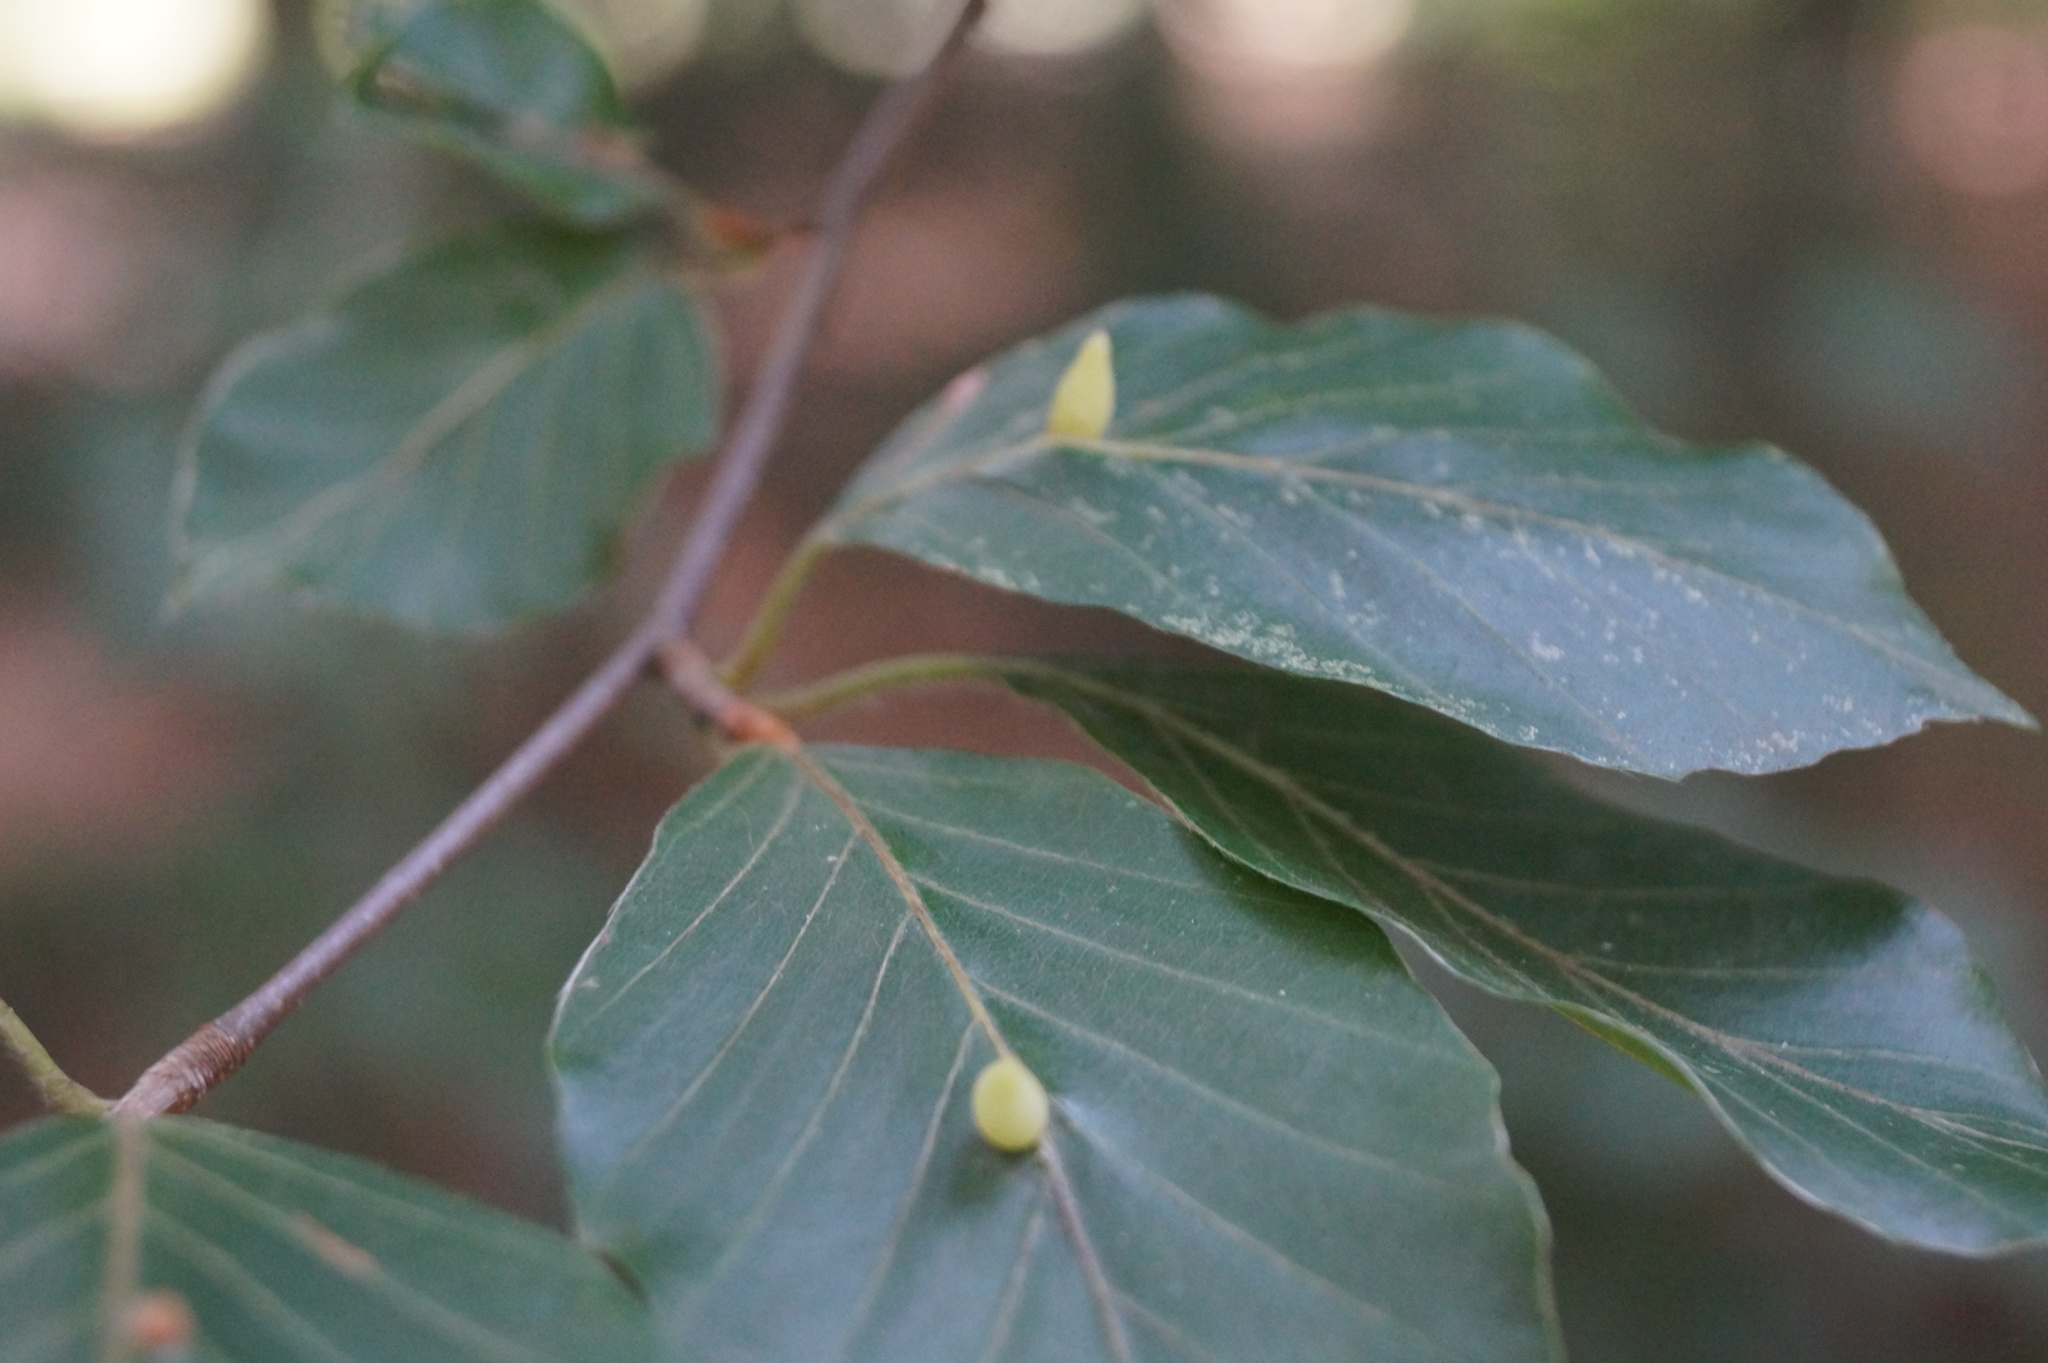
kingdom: Animalia
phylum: Arthropoda
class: Insecta
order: Diptera
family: Cecidomyiidae
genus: Mikiola
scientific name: Mikiola fagi
